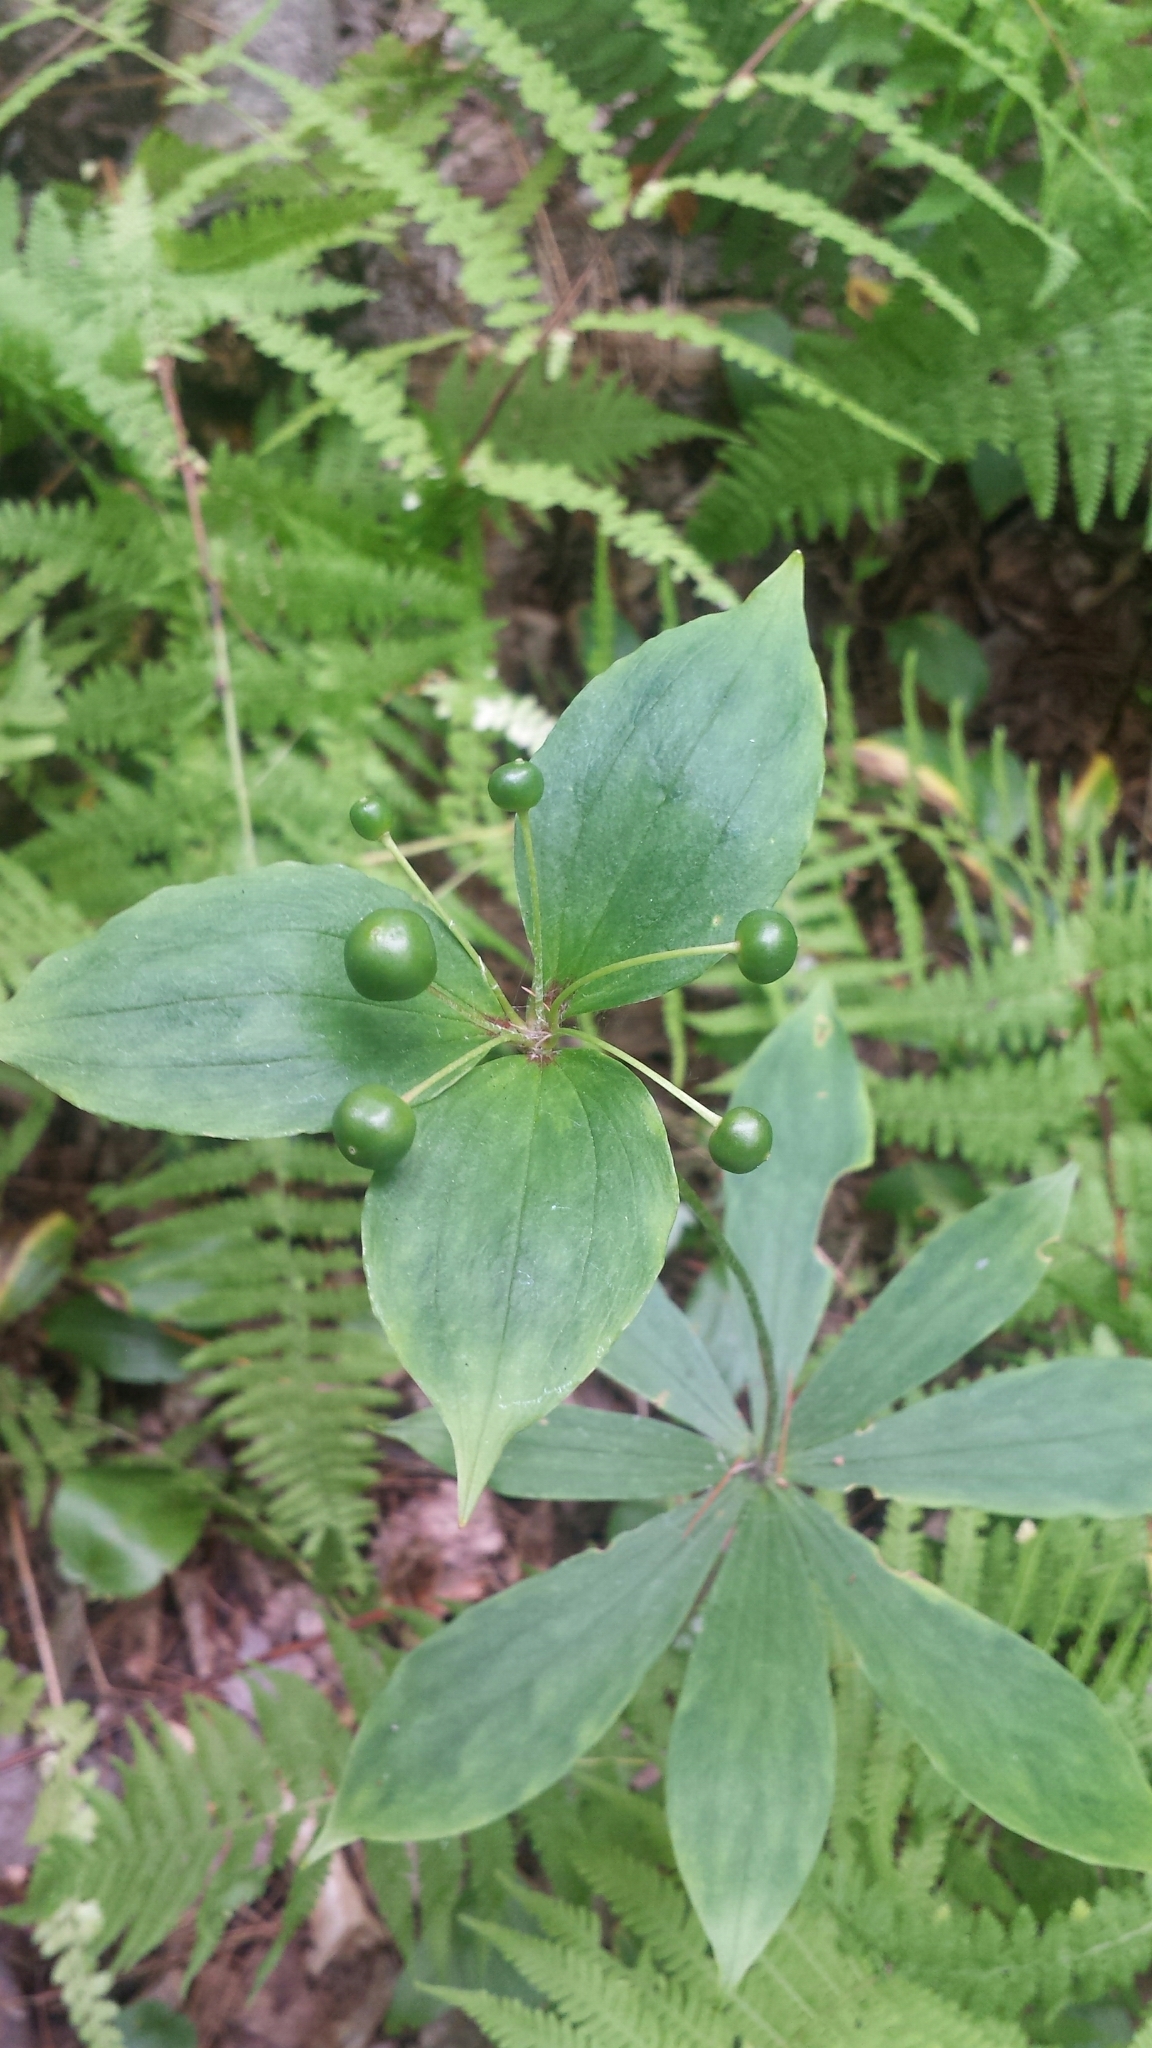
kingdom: Plantae
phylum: Tracheophyta
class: Liliopsida
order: Liliales
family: Liliaceae
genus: Medeola
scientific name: Medeola virginiana
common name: Indian cucumber-root
